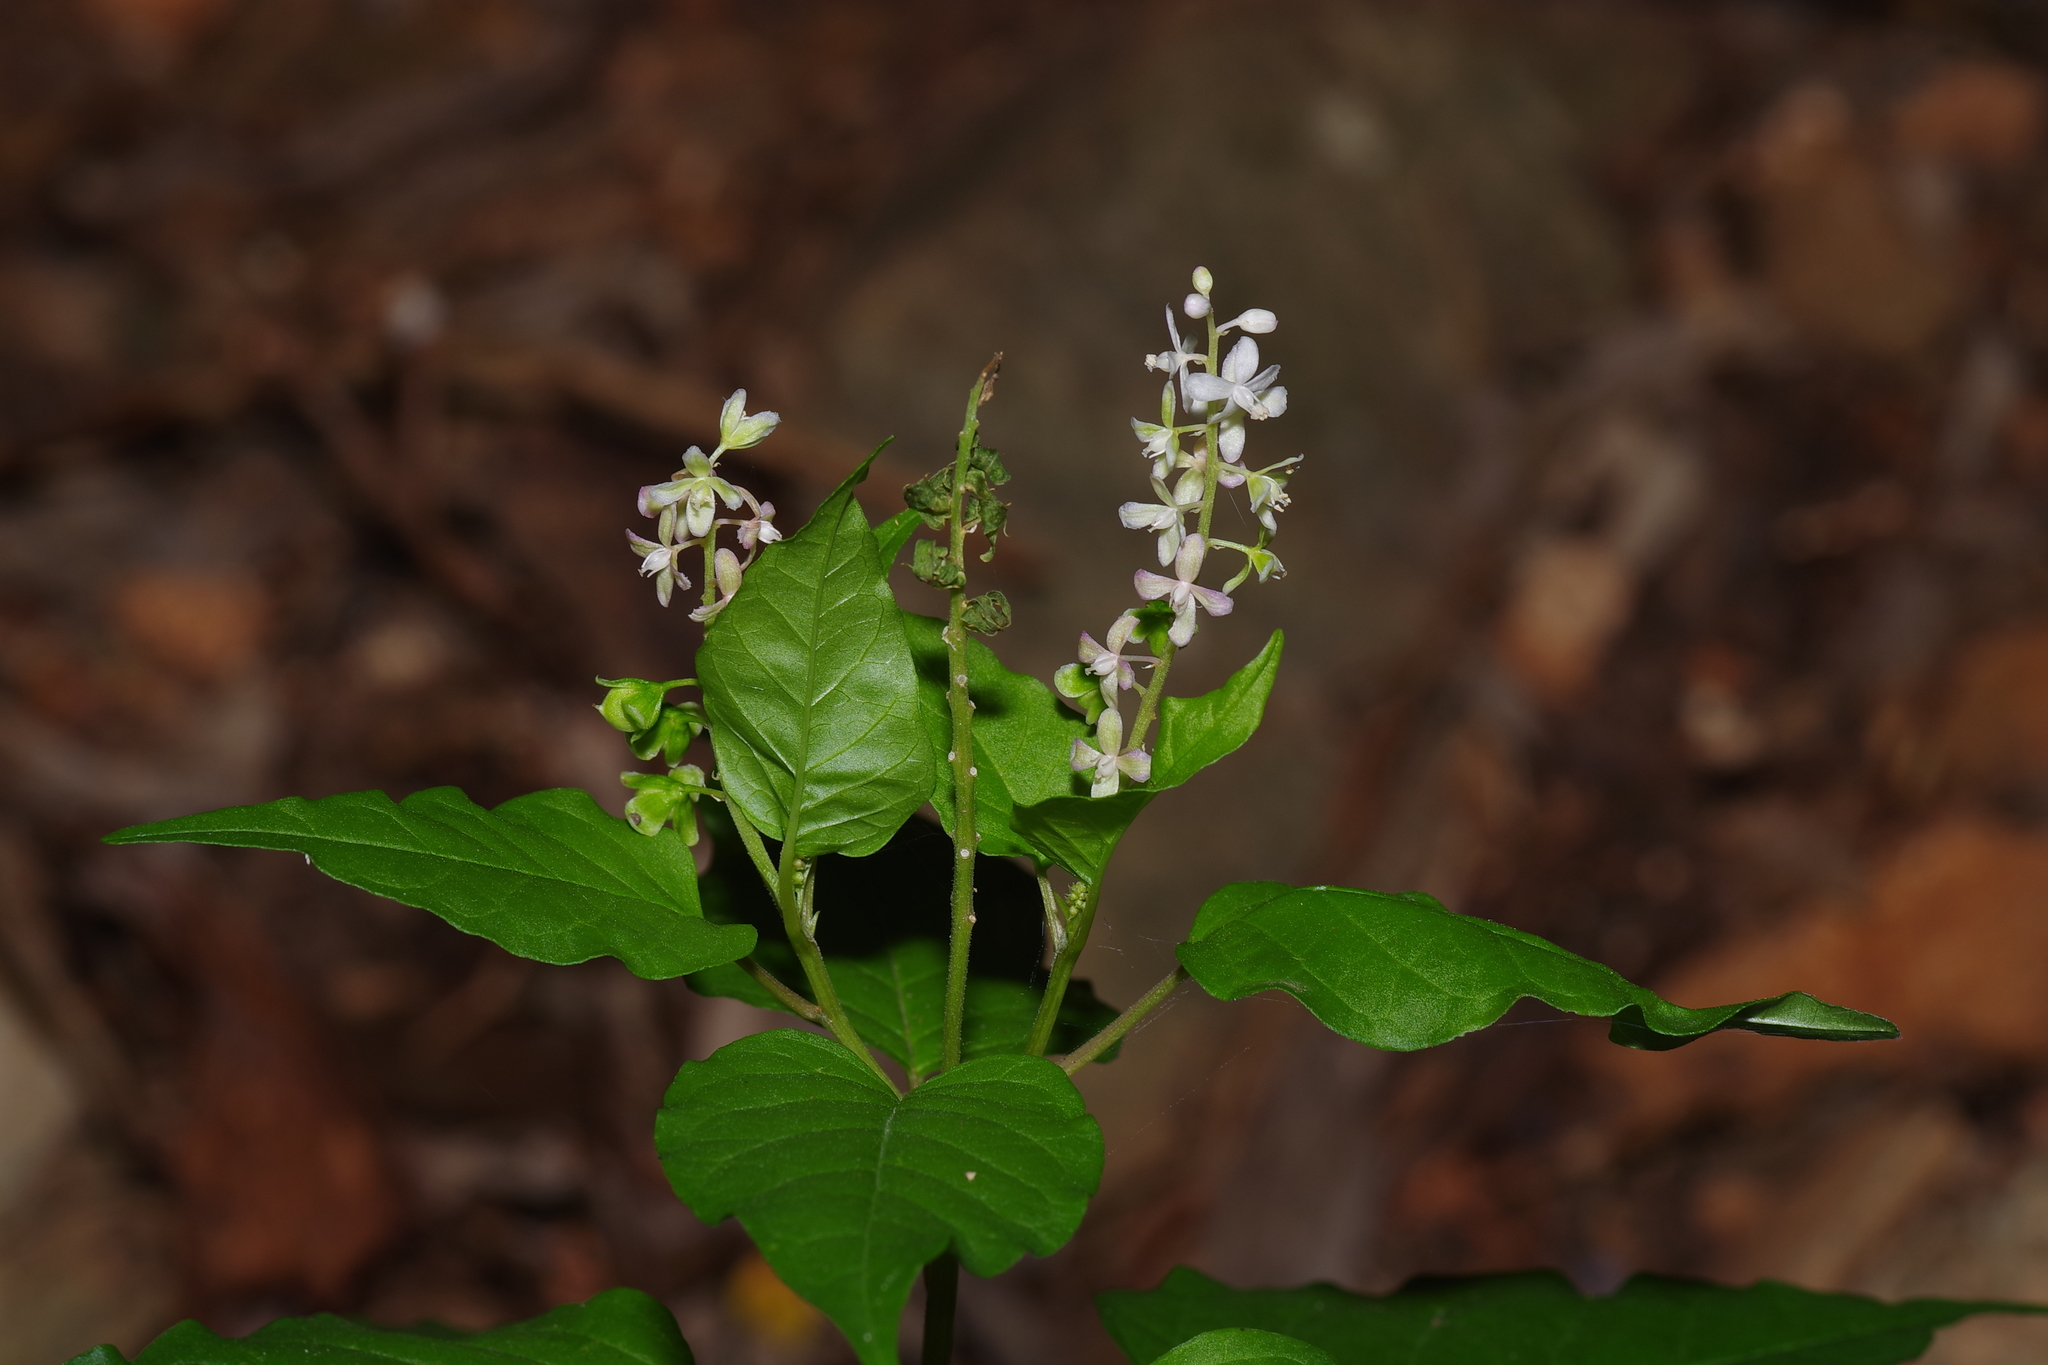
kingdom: Plantae
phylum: Tracheophyta
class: Magnoliopsida
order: Caryophyllales
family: Phytolaccaceae
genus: Rivina
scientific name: Rivina humilis
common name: Rougeplant
